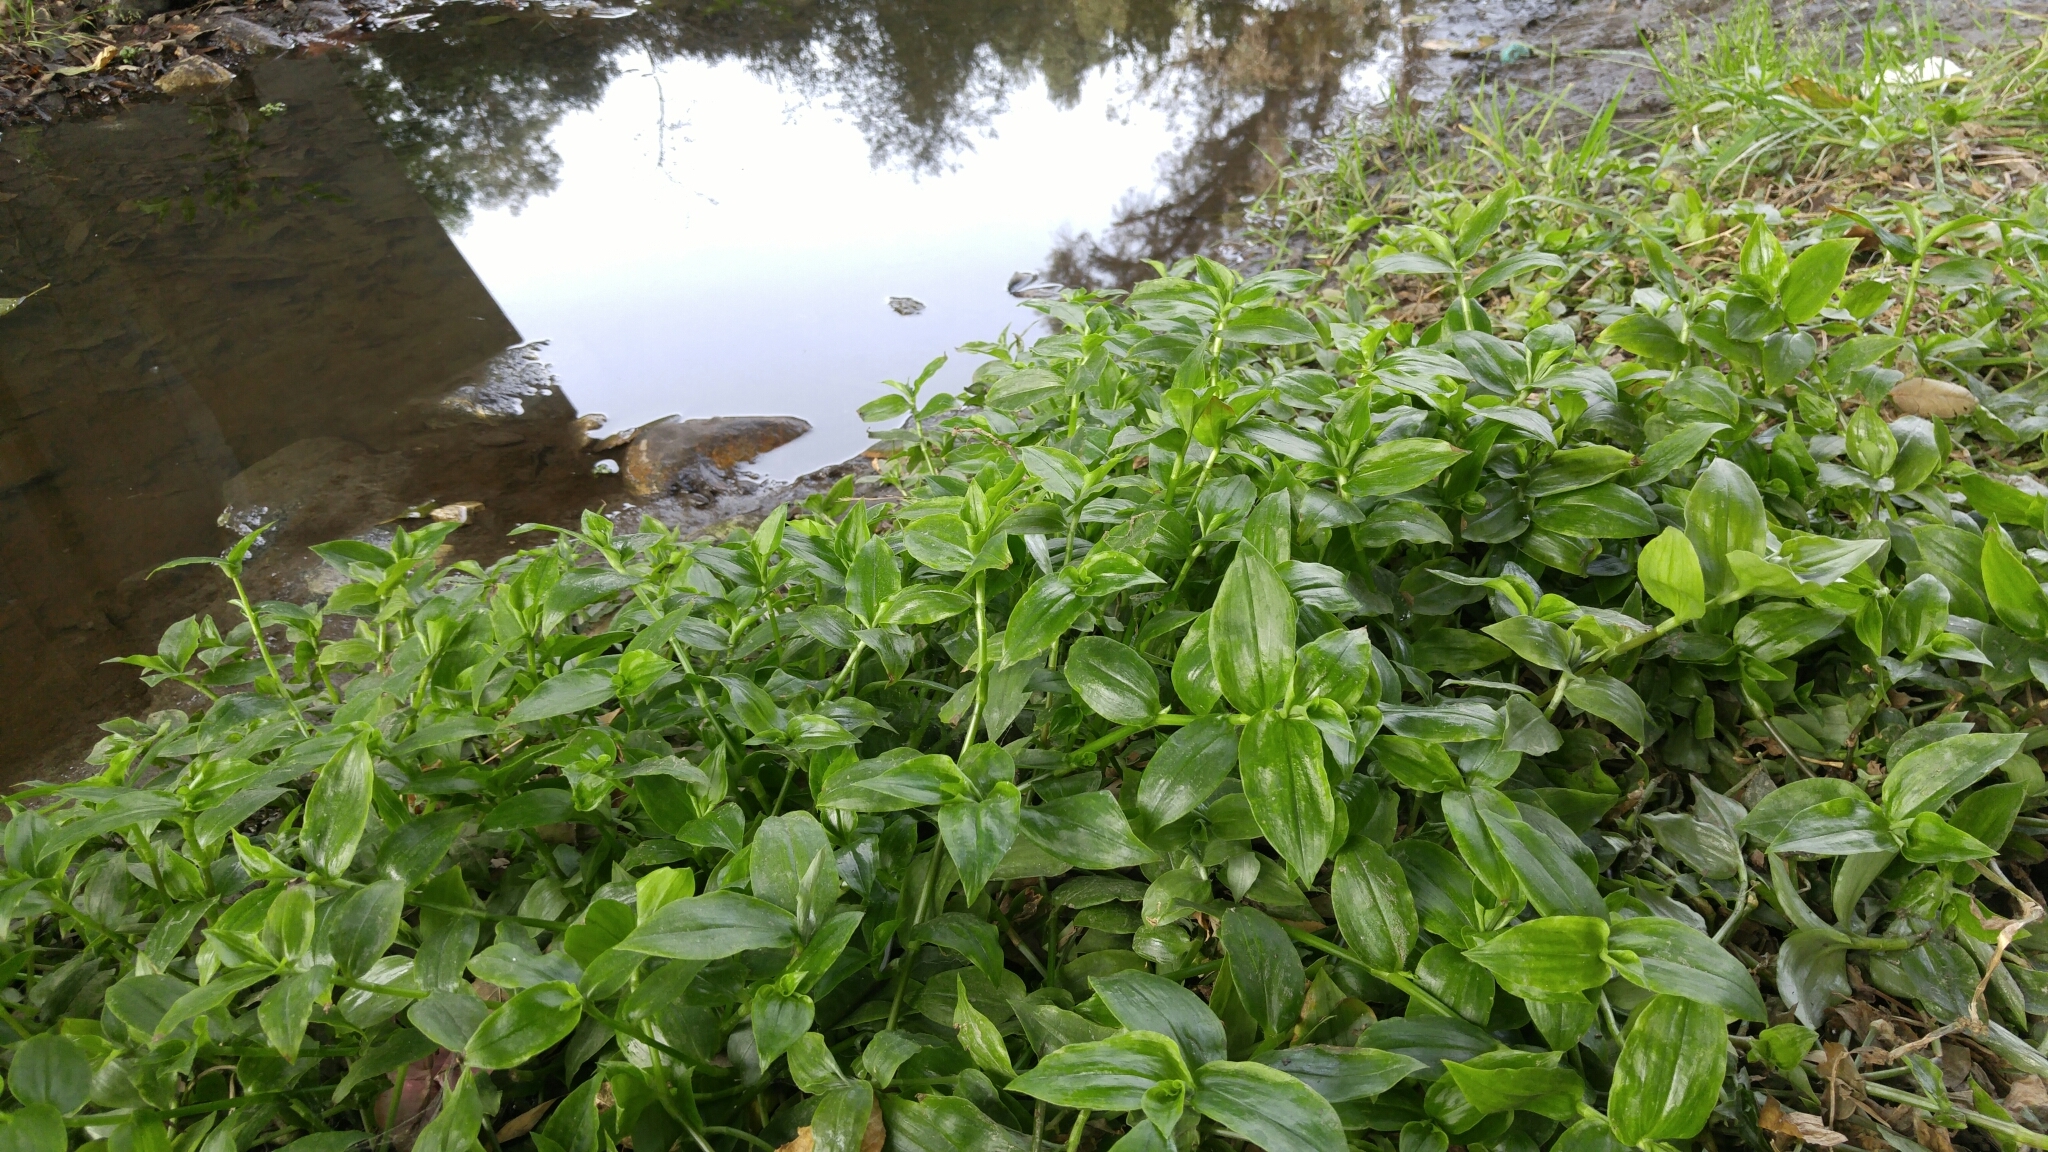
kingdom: Plantae
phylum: Tracheophyta
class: Liliopsida
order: Commelinales
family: Commelinaceae
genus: Tradescantia
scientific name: Tradescantia fluminensis
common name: Wandering-jew
